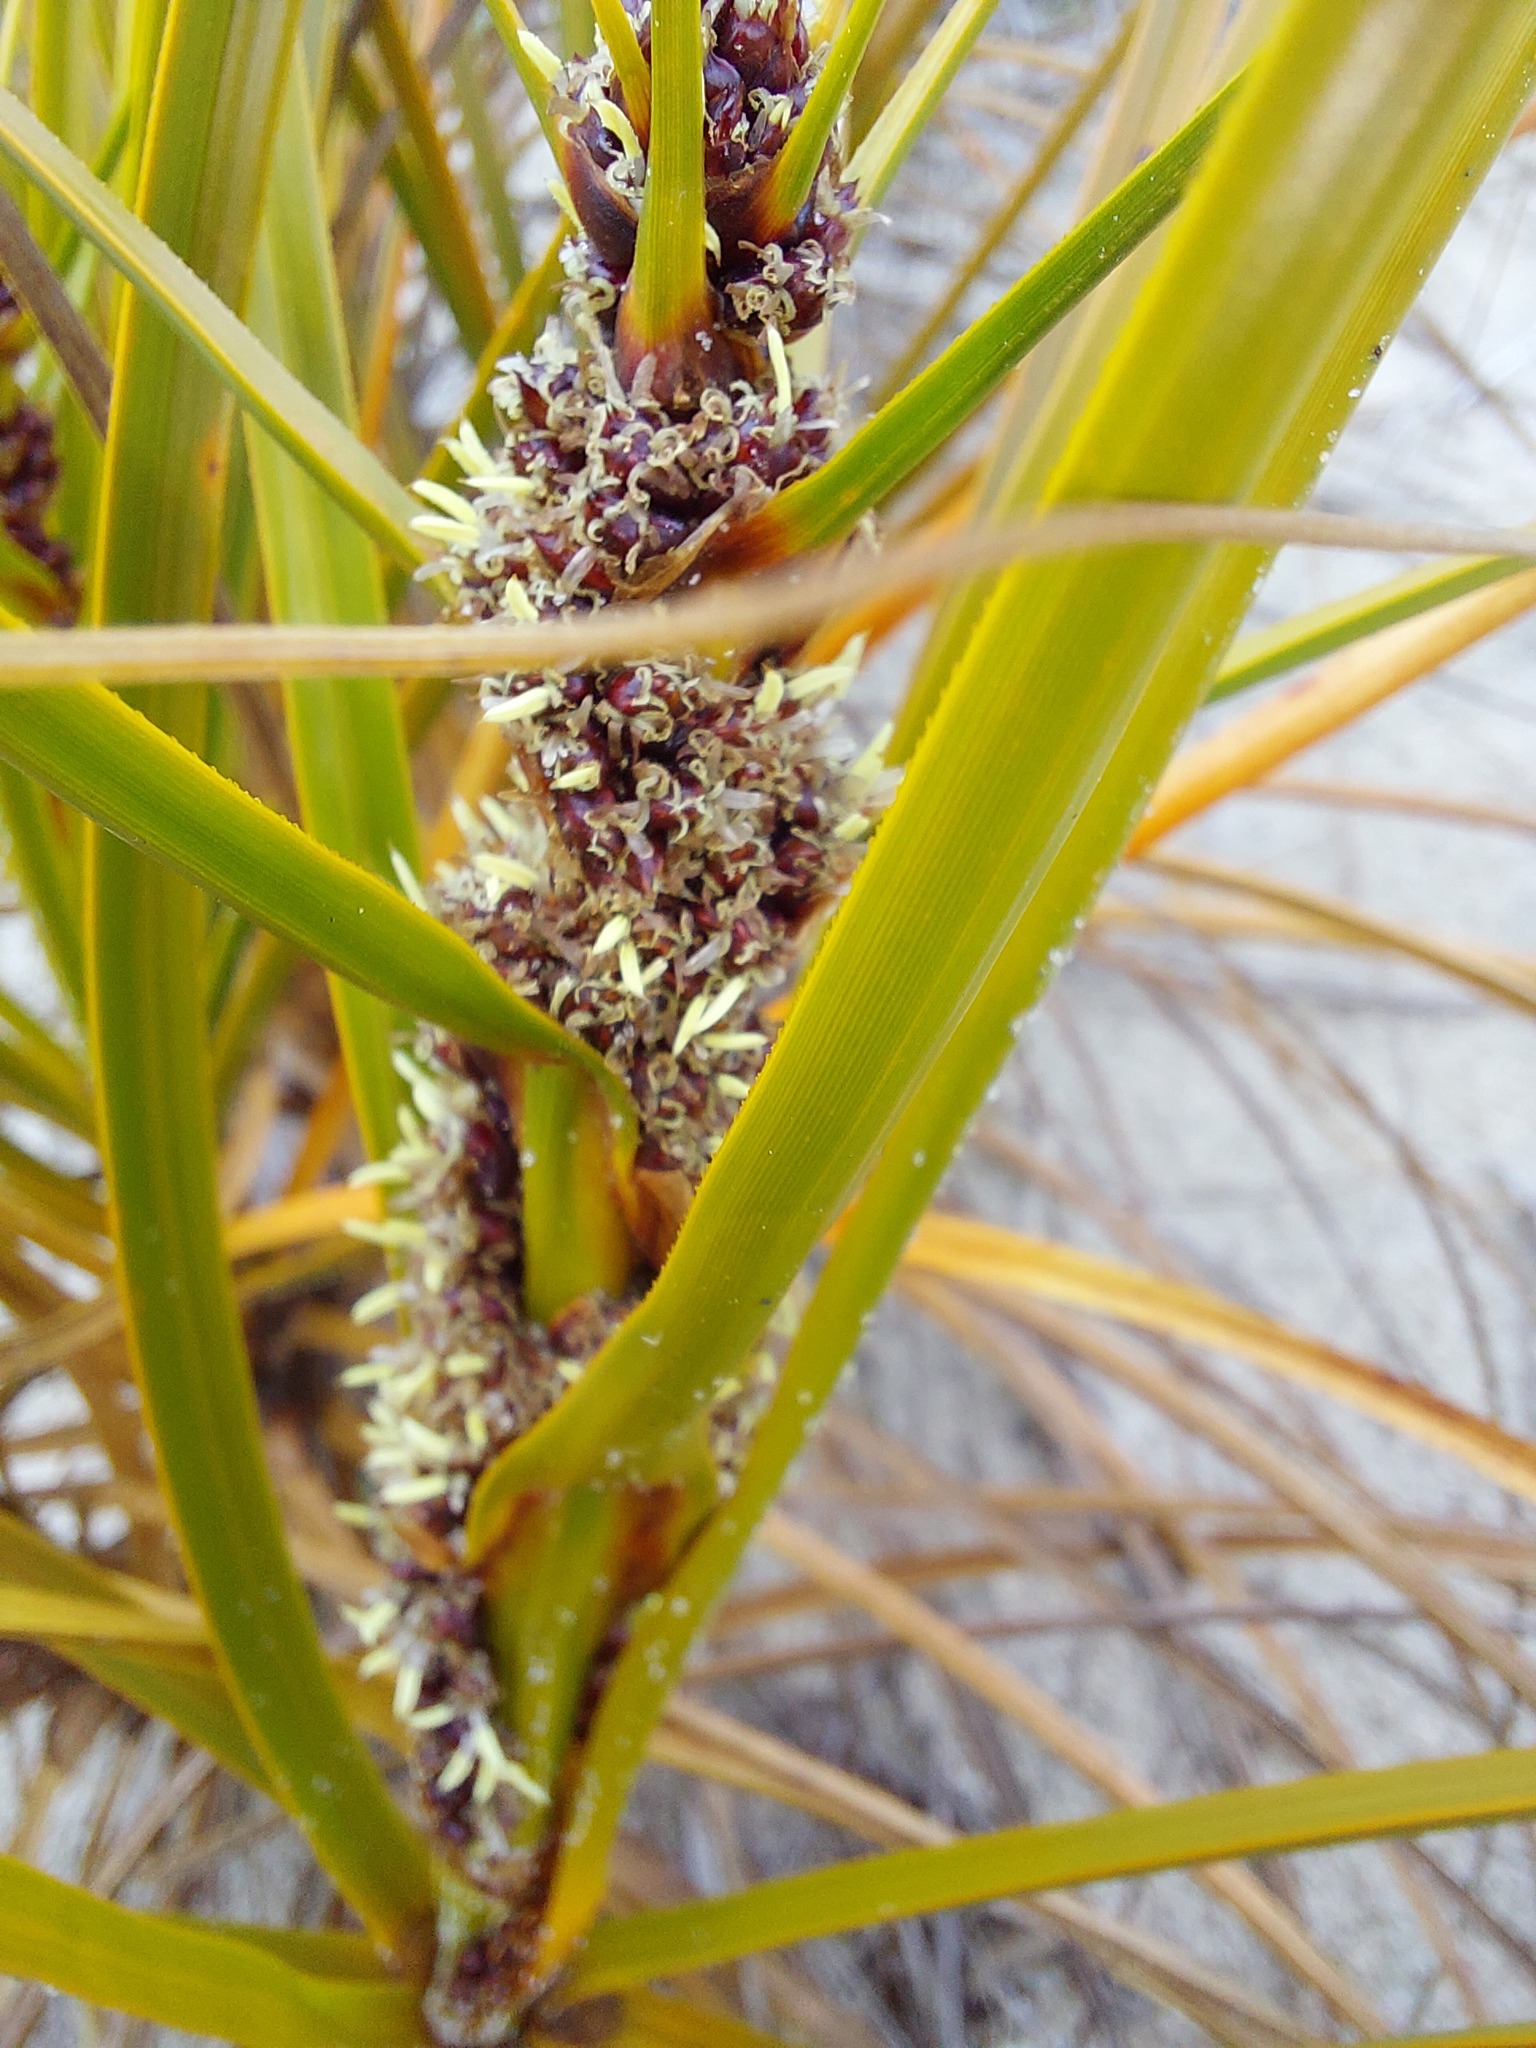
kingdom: Plantae
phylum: Tracheophyta
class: Liliopsida
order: Poales
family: Cyperaceae
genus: Ficinia
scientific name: Ficinia spiralis
